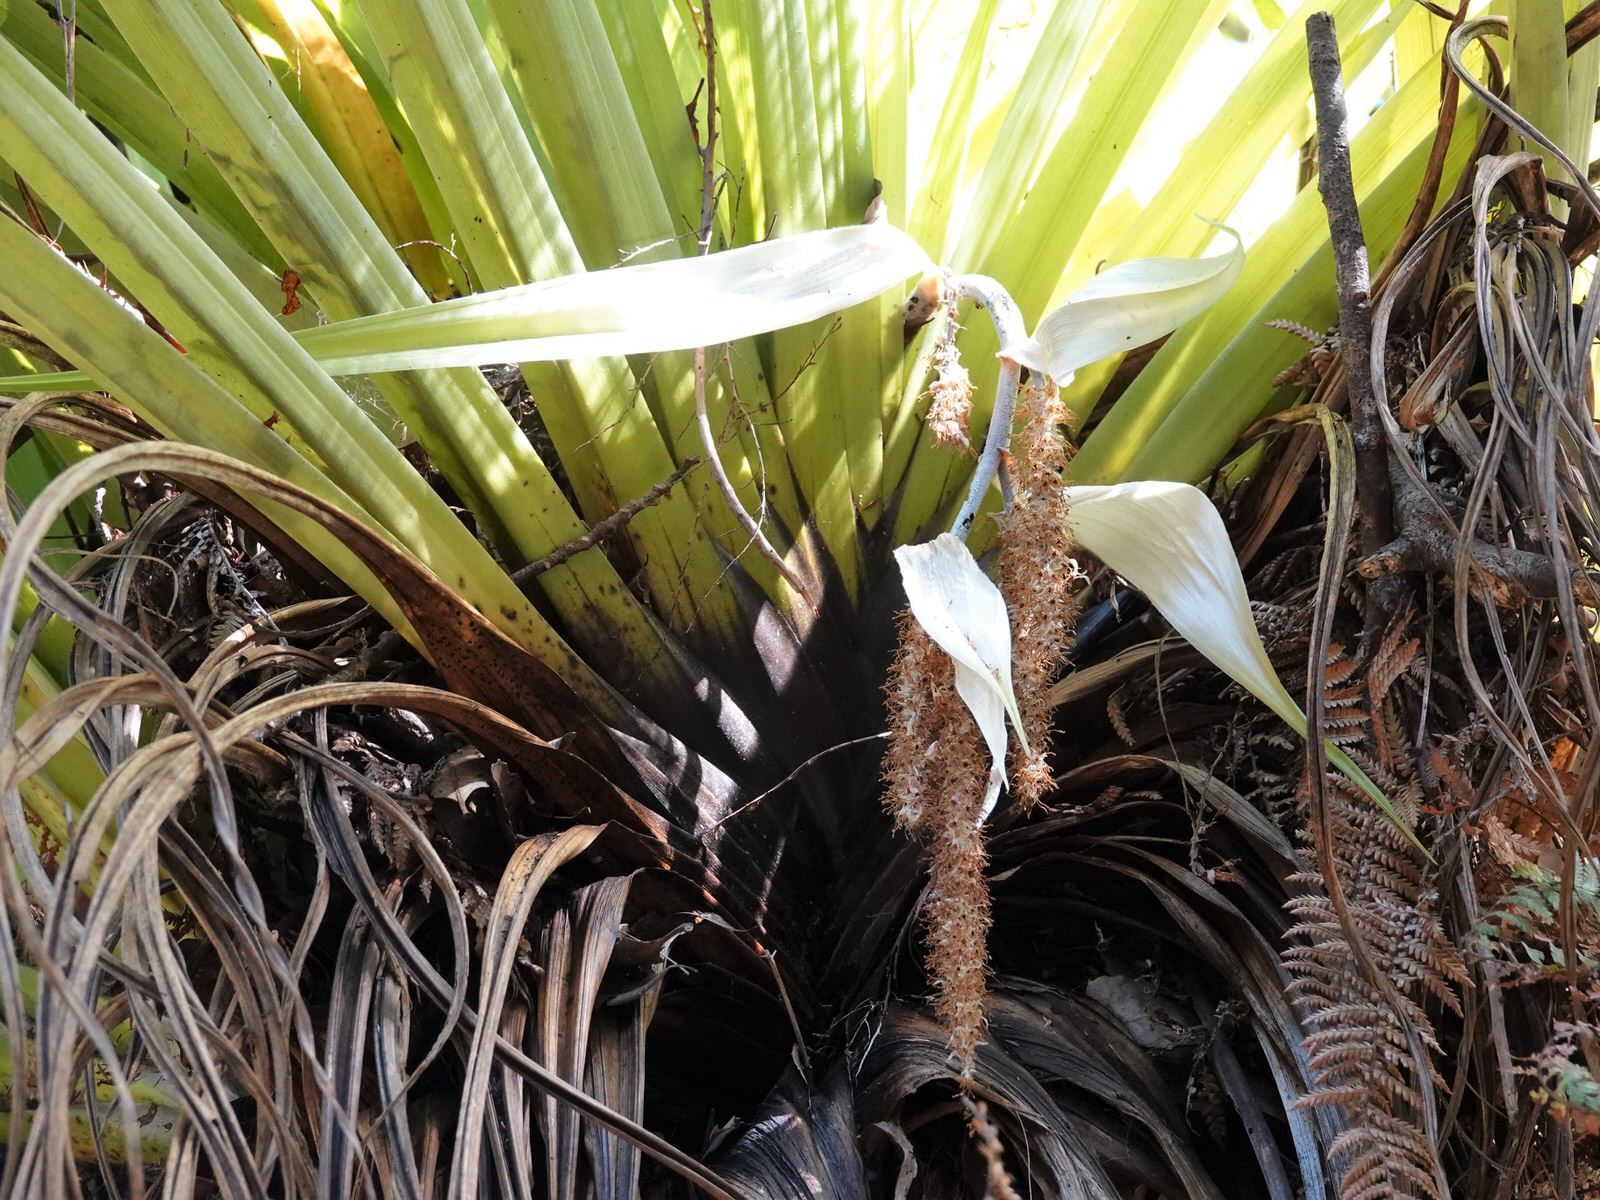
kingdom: Plantae
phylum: Tracheophyta
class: Liliopsida
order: Asparagales
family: Asteliaceae
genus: Astelia
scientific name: Astelia hastata
